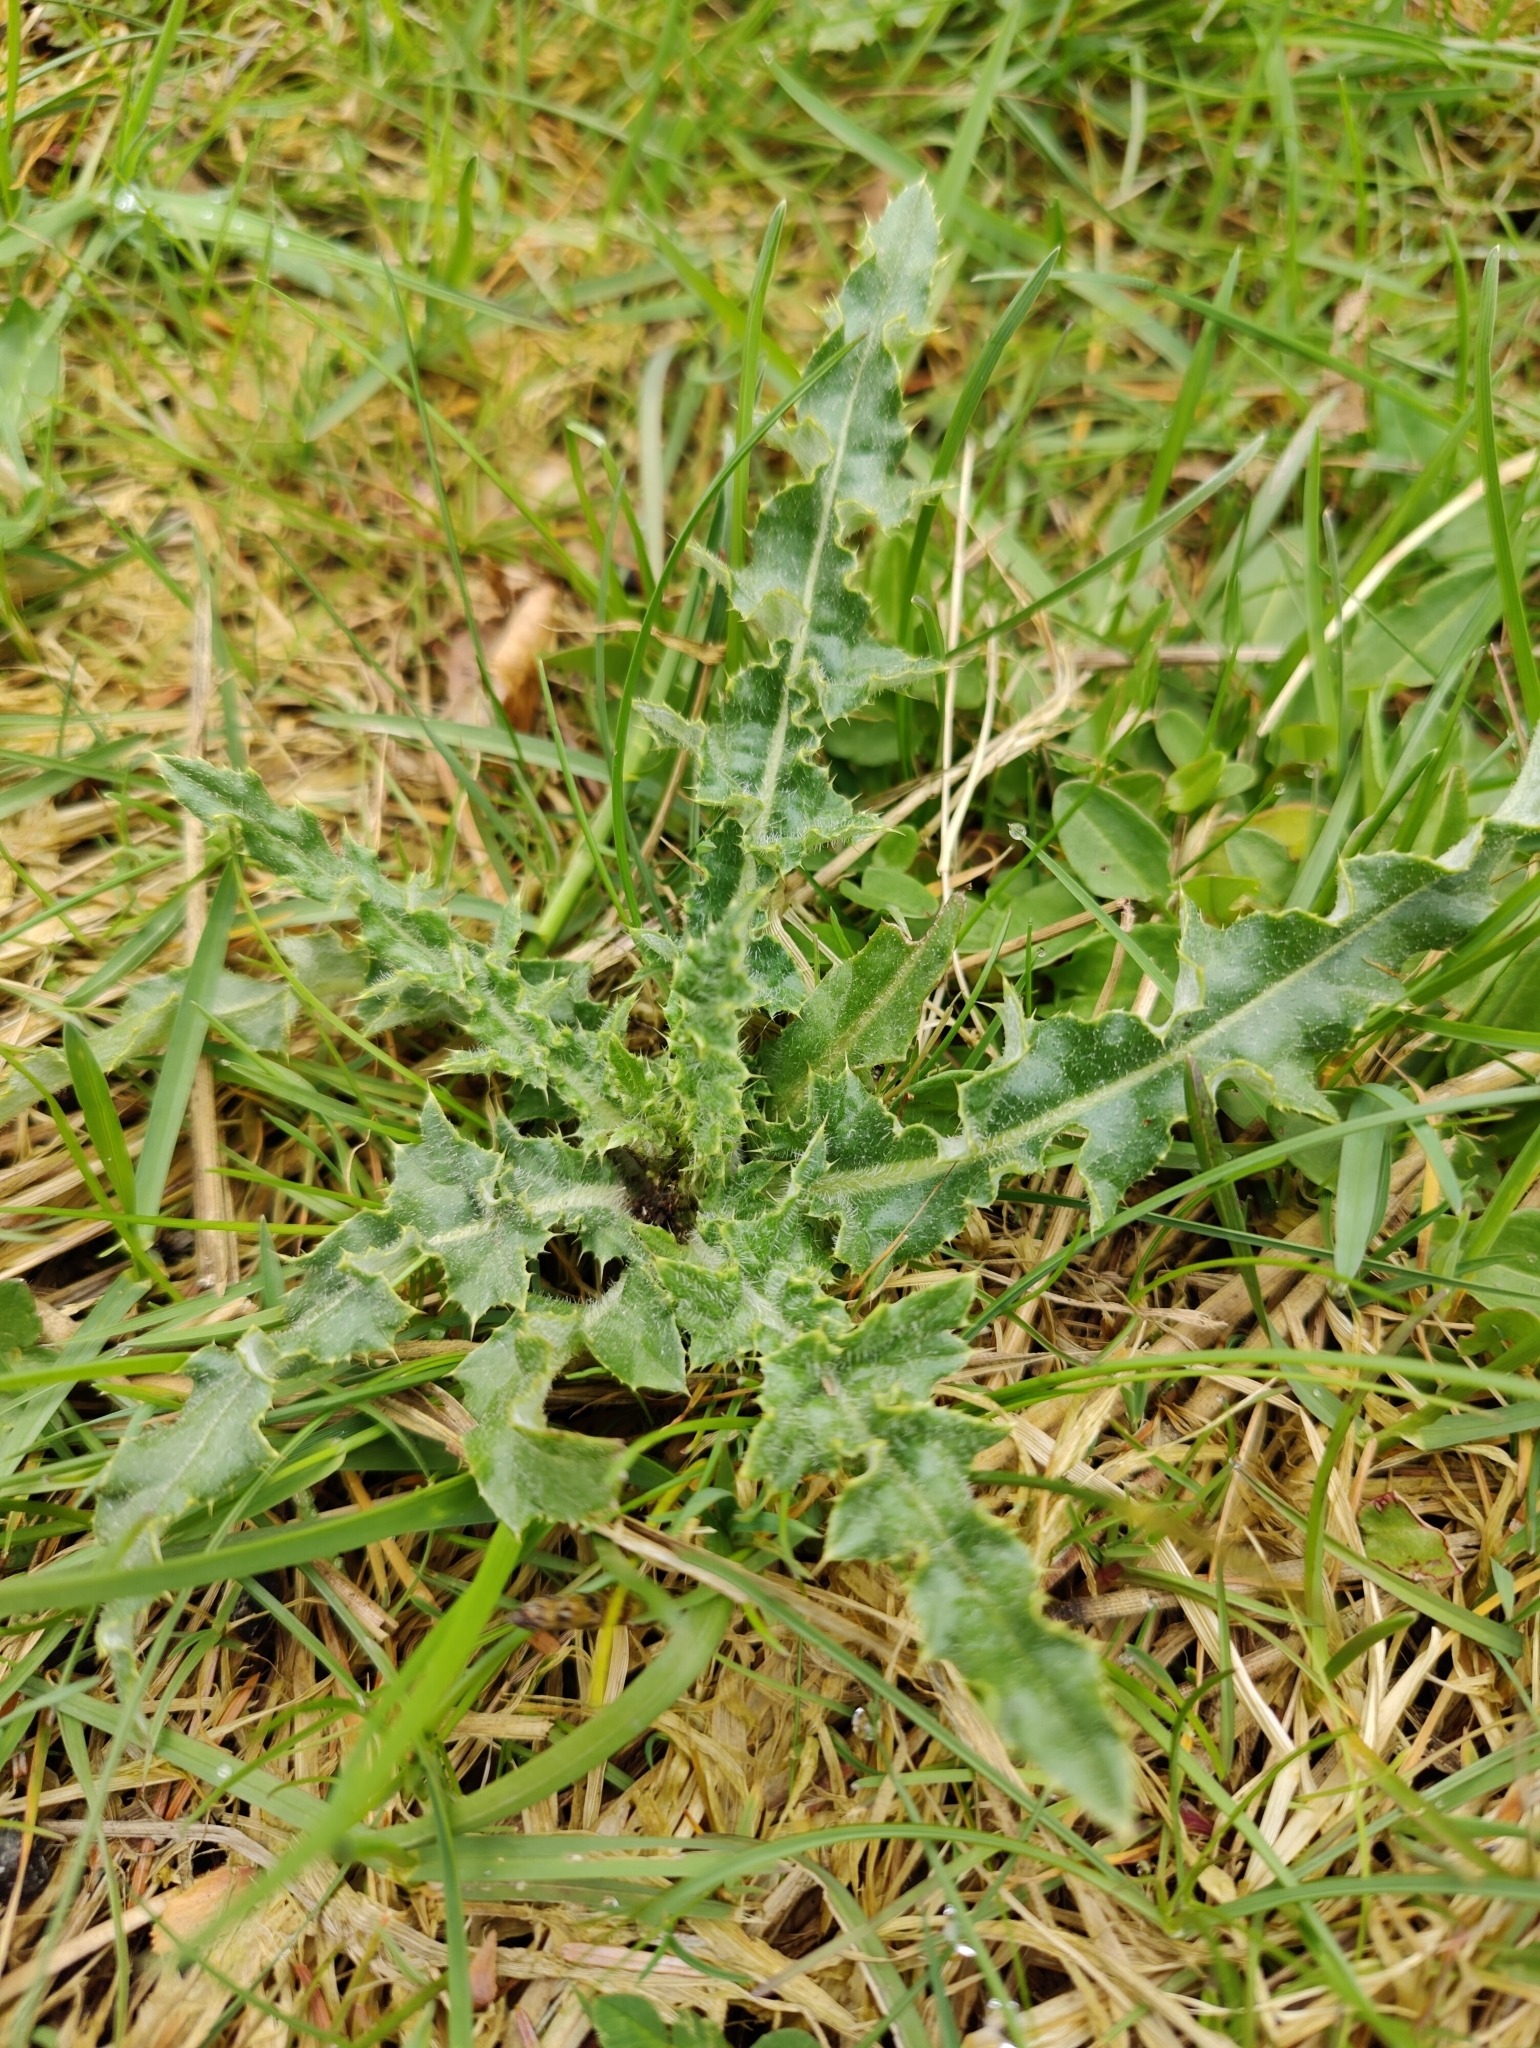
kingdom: Plantae
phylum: Tracheophyta
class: Magnoliopsida
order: Asterales
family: Asteraceae
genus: Cirsium
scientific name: Cirsium arvense
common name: Creeping thistle
